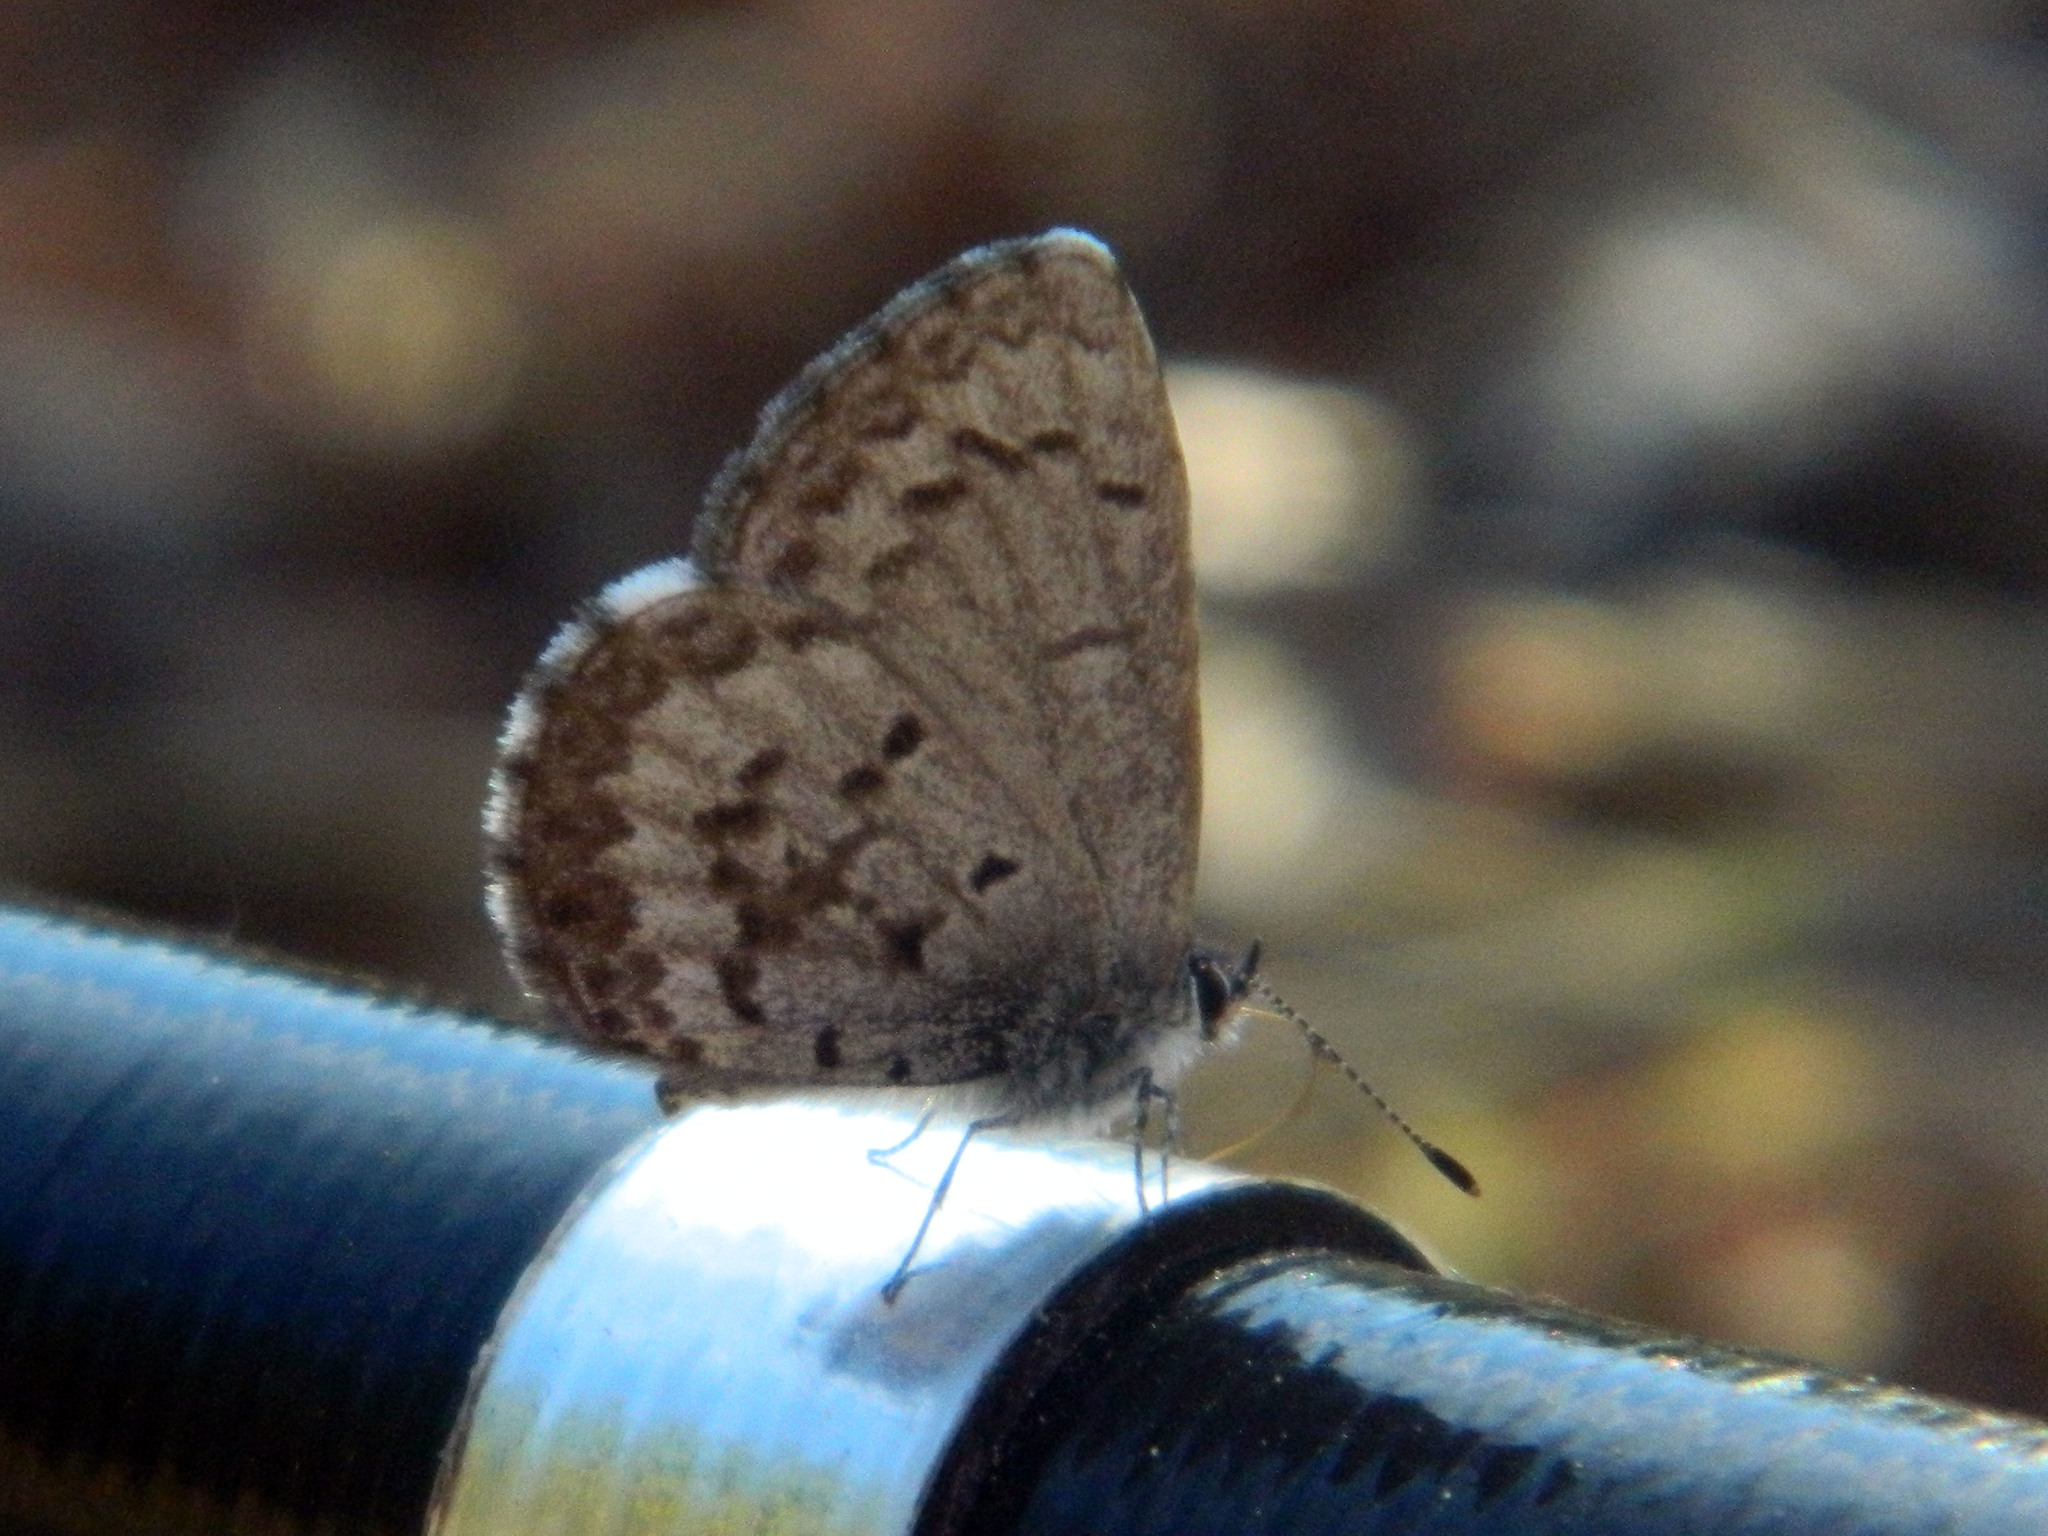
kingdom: Animalia
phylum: Arthropoda
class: Insecta
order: Lepidoptera
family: Lycaenidae
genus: Celastrina
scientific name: Celastrina lucia
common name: Lucia azure
